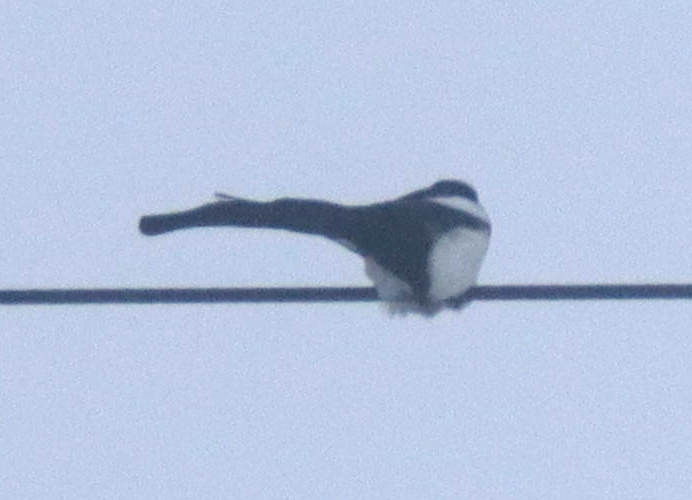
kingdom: Animalia
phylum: Chordata
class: Aves
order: Passeriformes
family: Corvidae
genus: Pica
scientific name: Pica hudsonia
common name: Black-billed magpie
